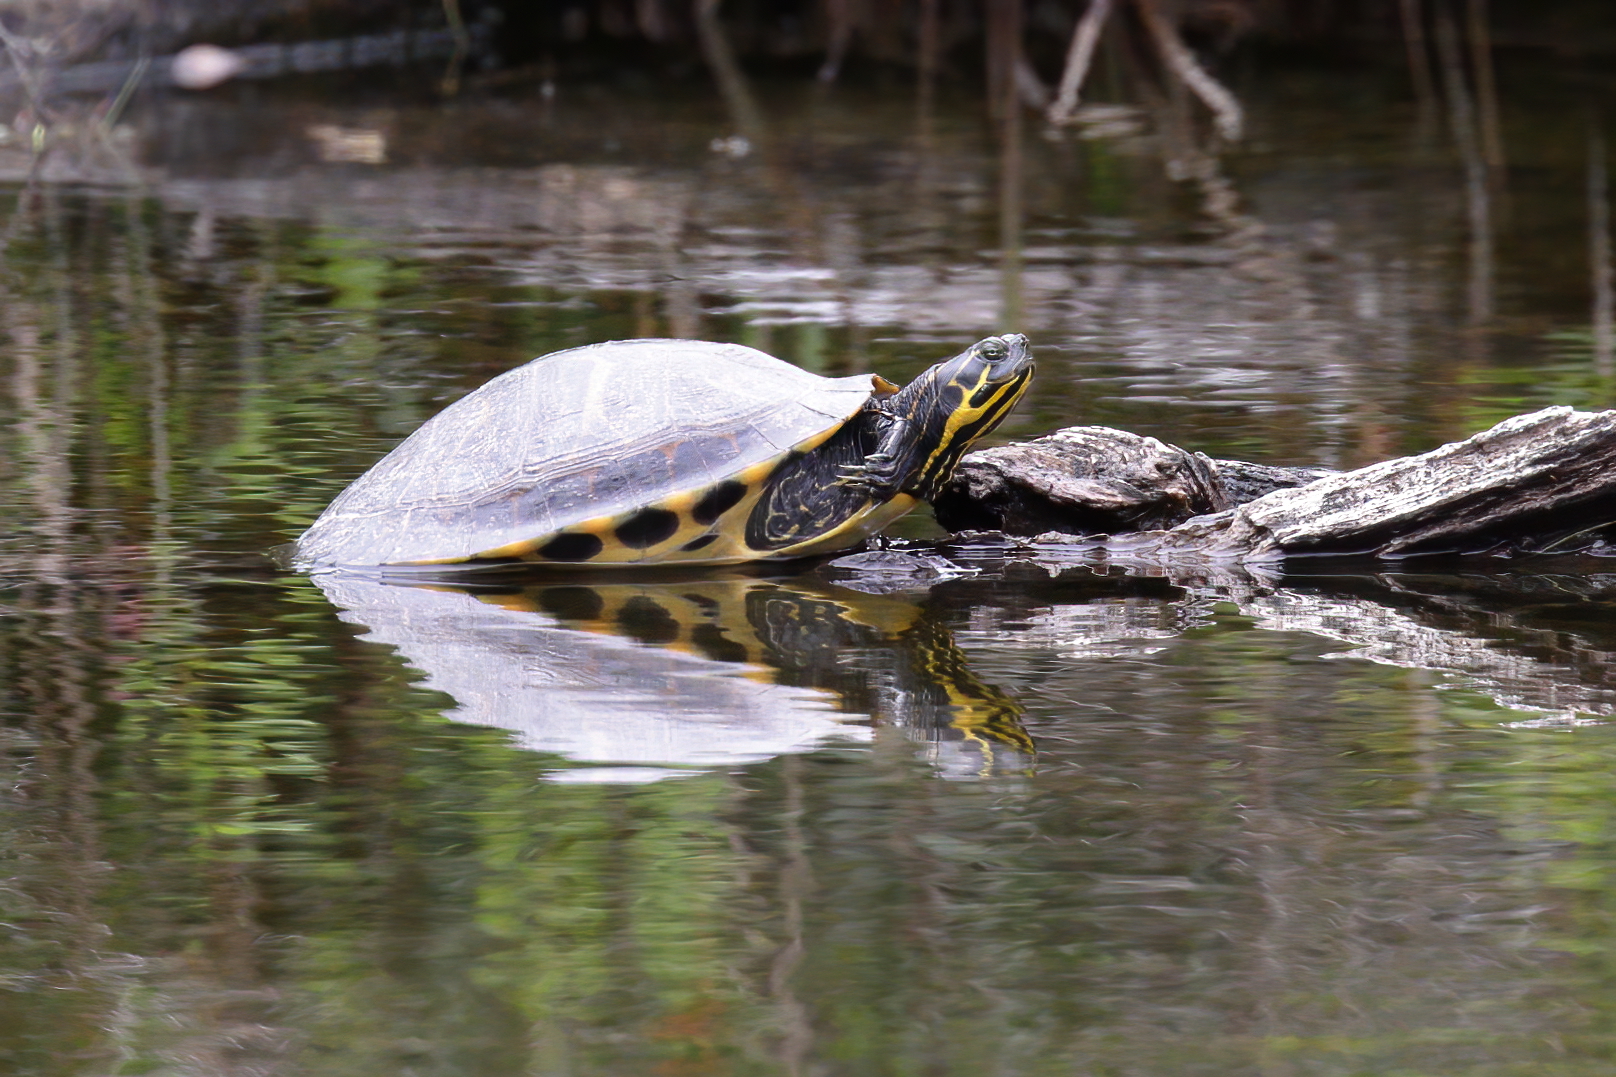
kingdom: Animalia
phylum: Chordata
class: Testudines
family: Emydidae
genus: Pseudemys
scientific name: Pseudemys concinna
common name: Eastern river cooter
